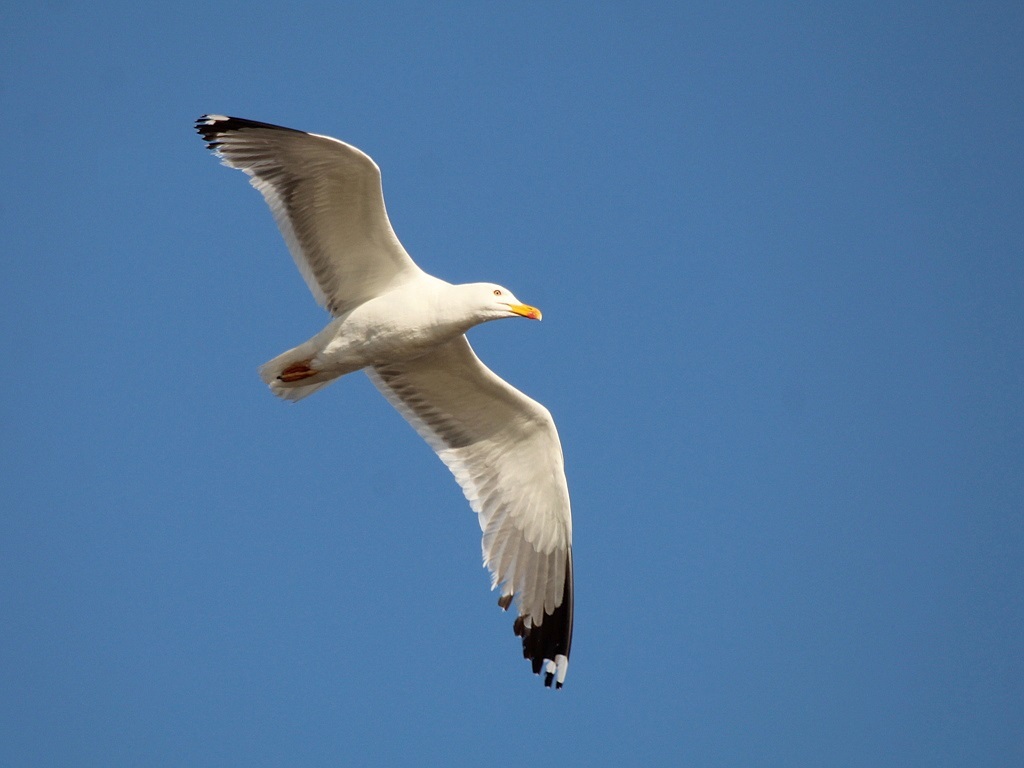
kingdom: Animalia
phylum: Chordata
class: Aves
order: Charadriiformes
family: Laridae
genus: Larus
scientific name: Larus fuscus
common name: Lesser black-backed gull
